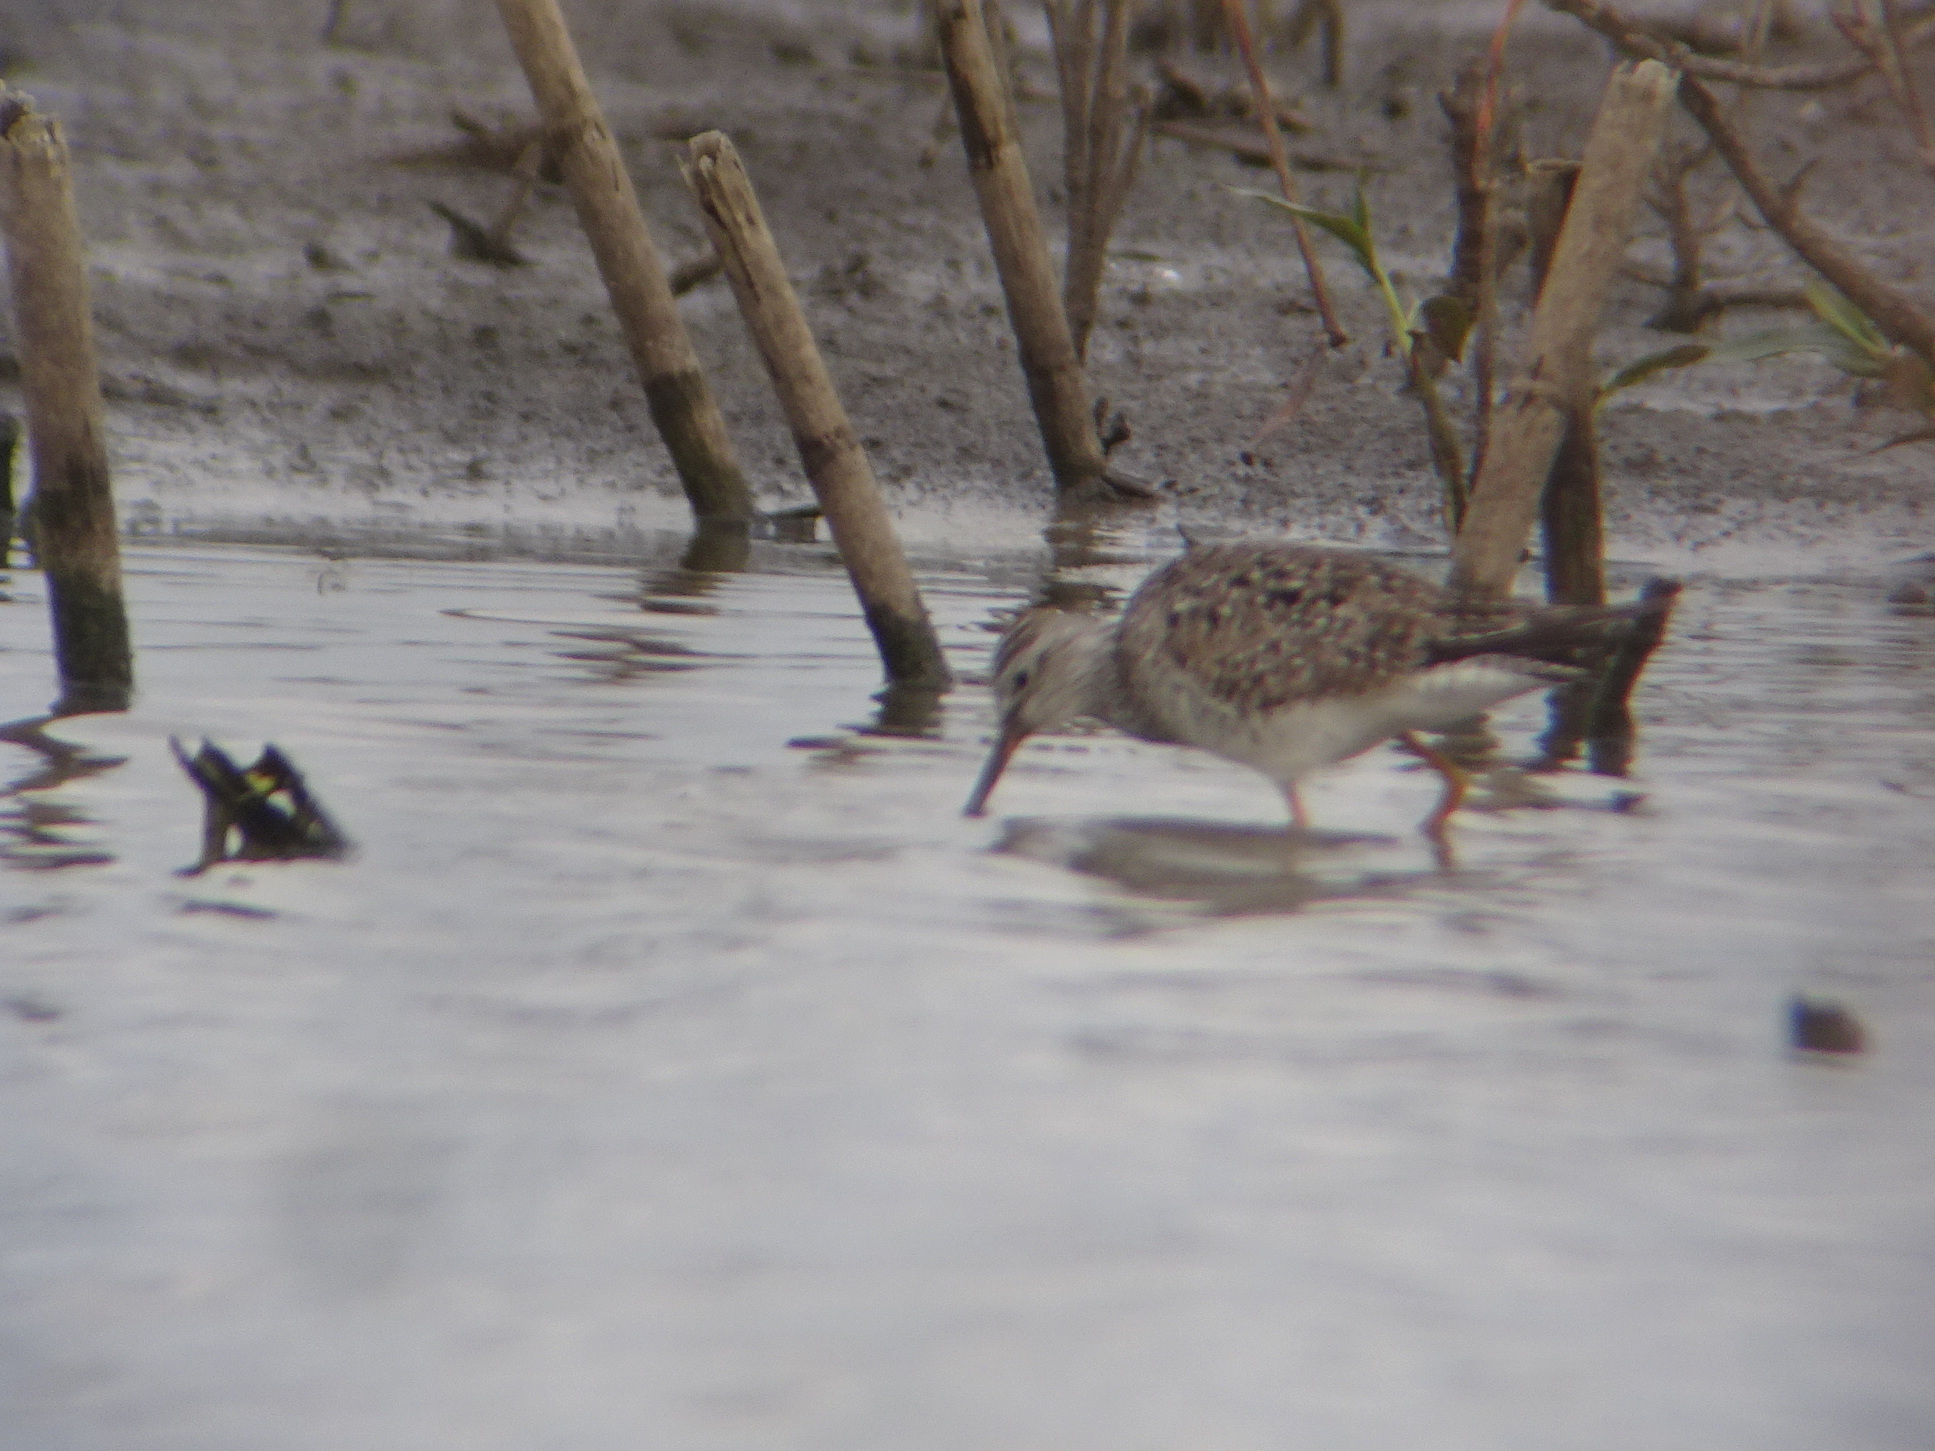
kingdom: Animalia
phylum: Chordata
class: Aves
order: Charadriiformes
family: Scolopacidae
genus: Tringa
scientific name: Tringa flavipes
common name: Lesser yellowlegs
